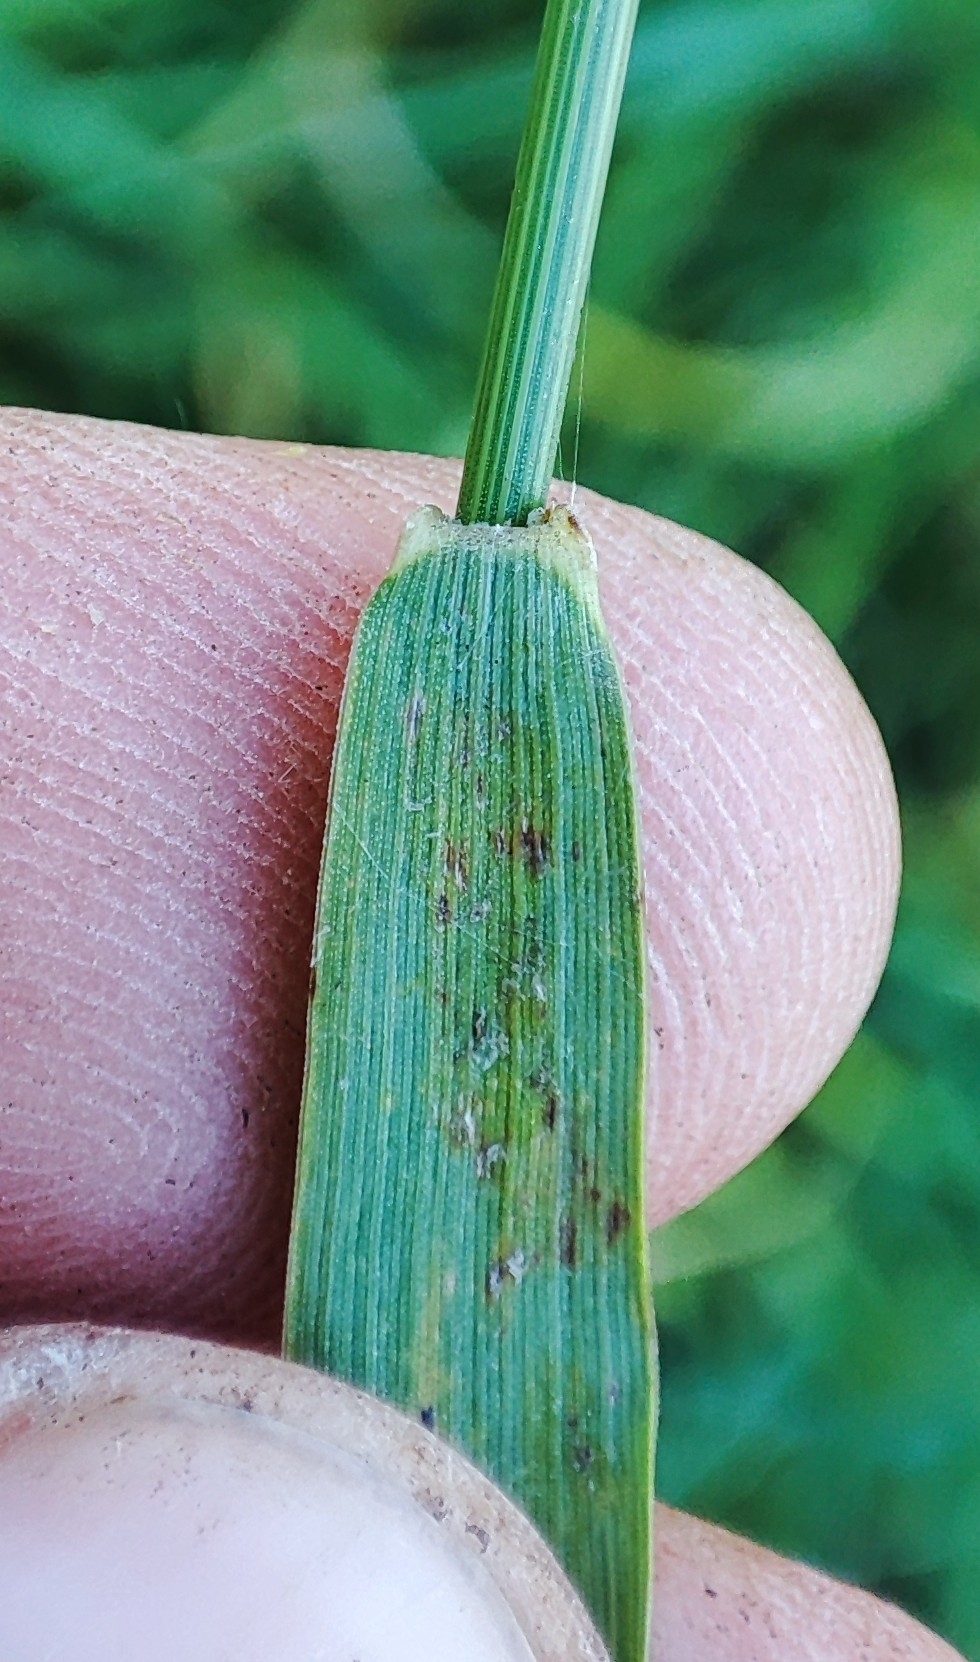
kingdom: Plantae
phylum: Tracheophyta
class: Liliopsida
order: Poales
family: Poaceae
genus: Elymus
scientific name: Elymus repens
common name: Quackgrass
